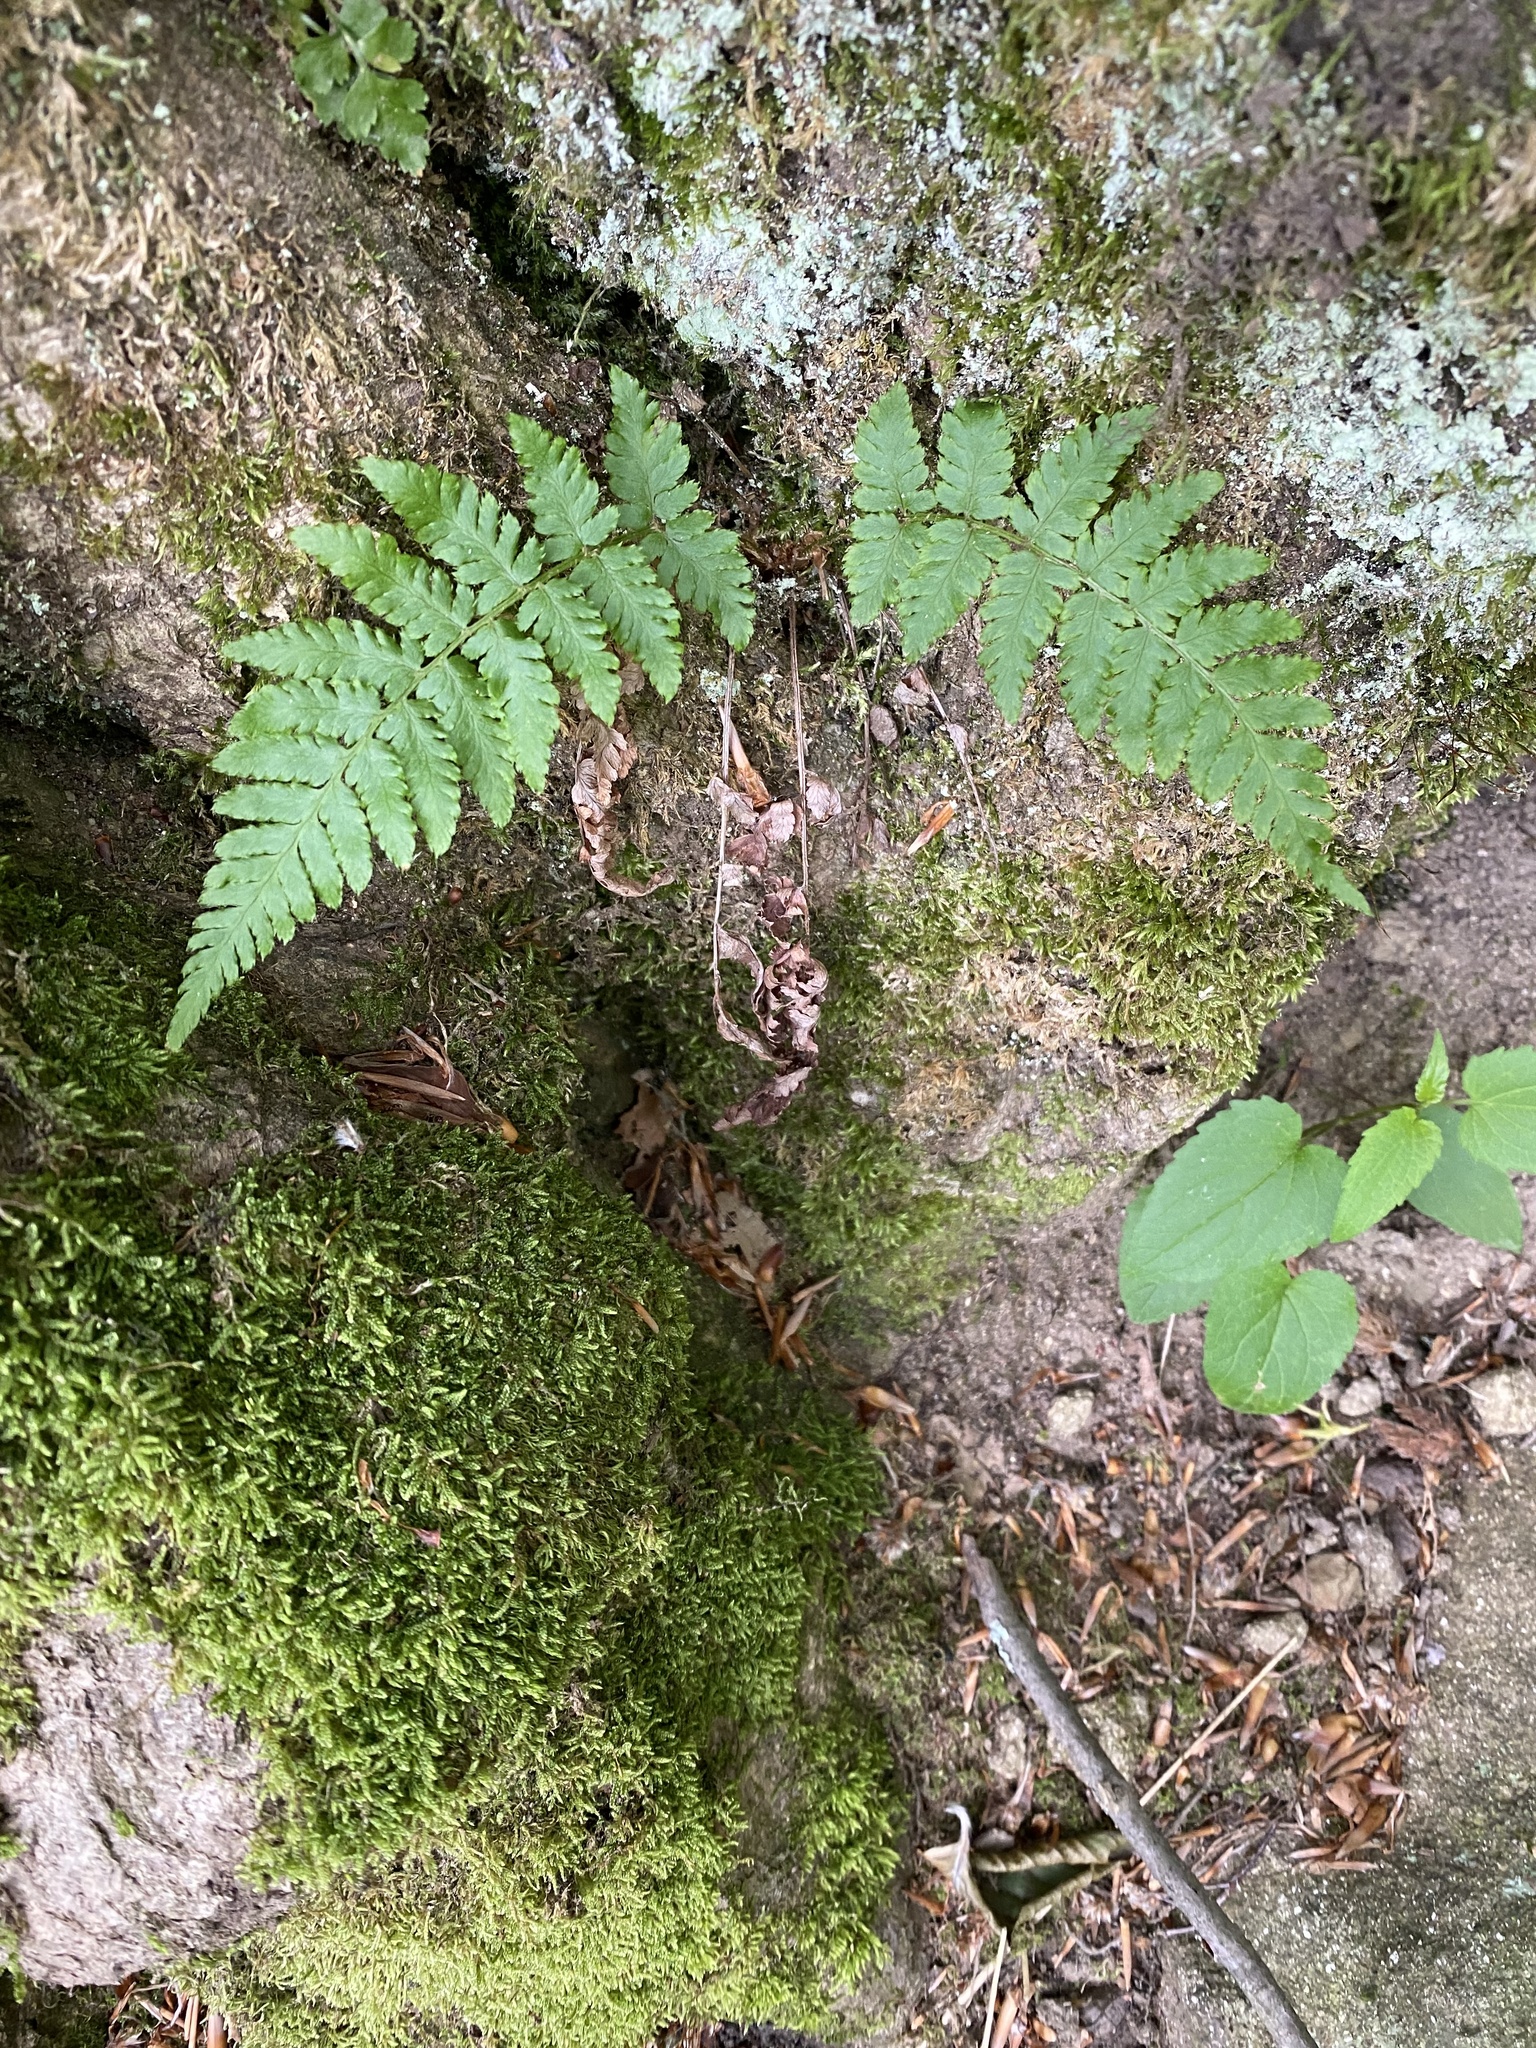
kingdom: Plantae
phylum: Tracheophyta
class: Polypodiopsida
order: Polypodiales
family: Dryopteridaceae
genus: Dryopteris
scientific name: Dryopteris
